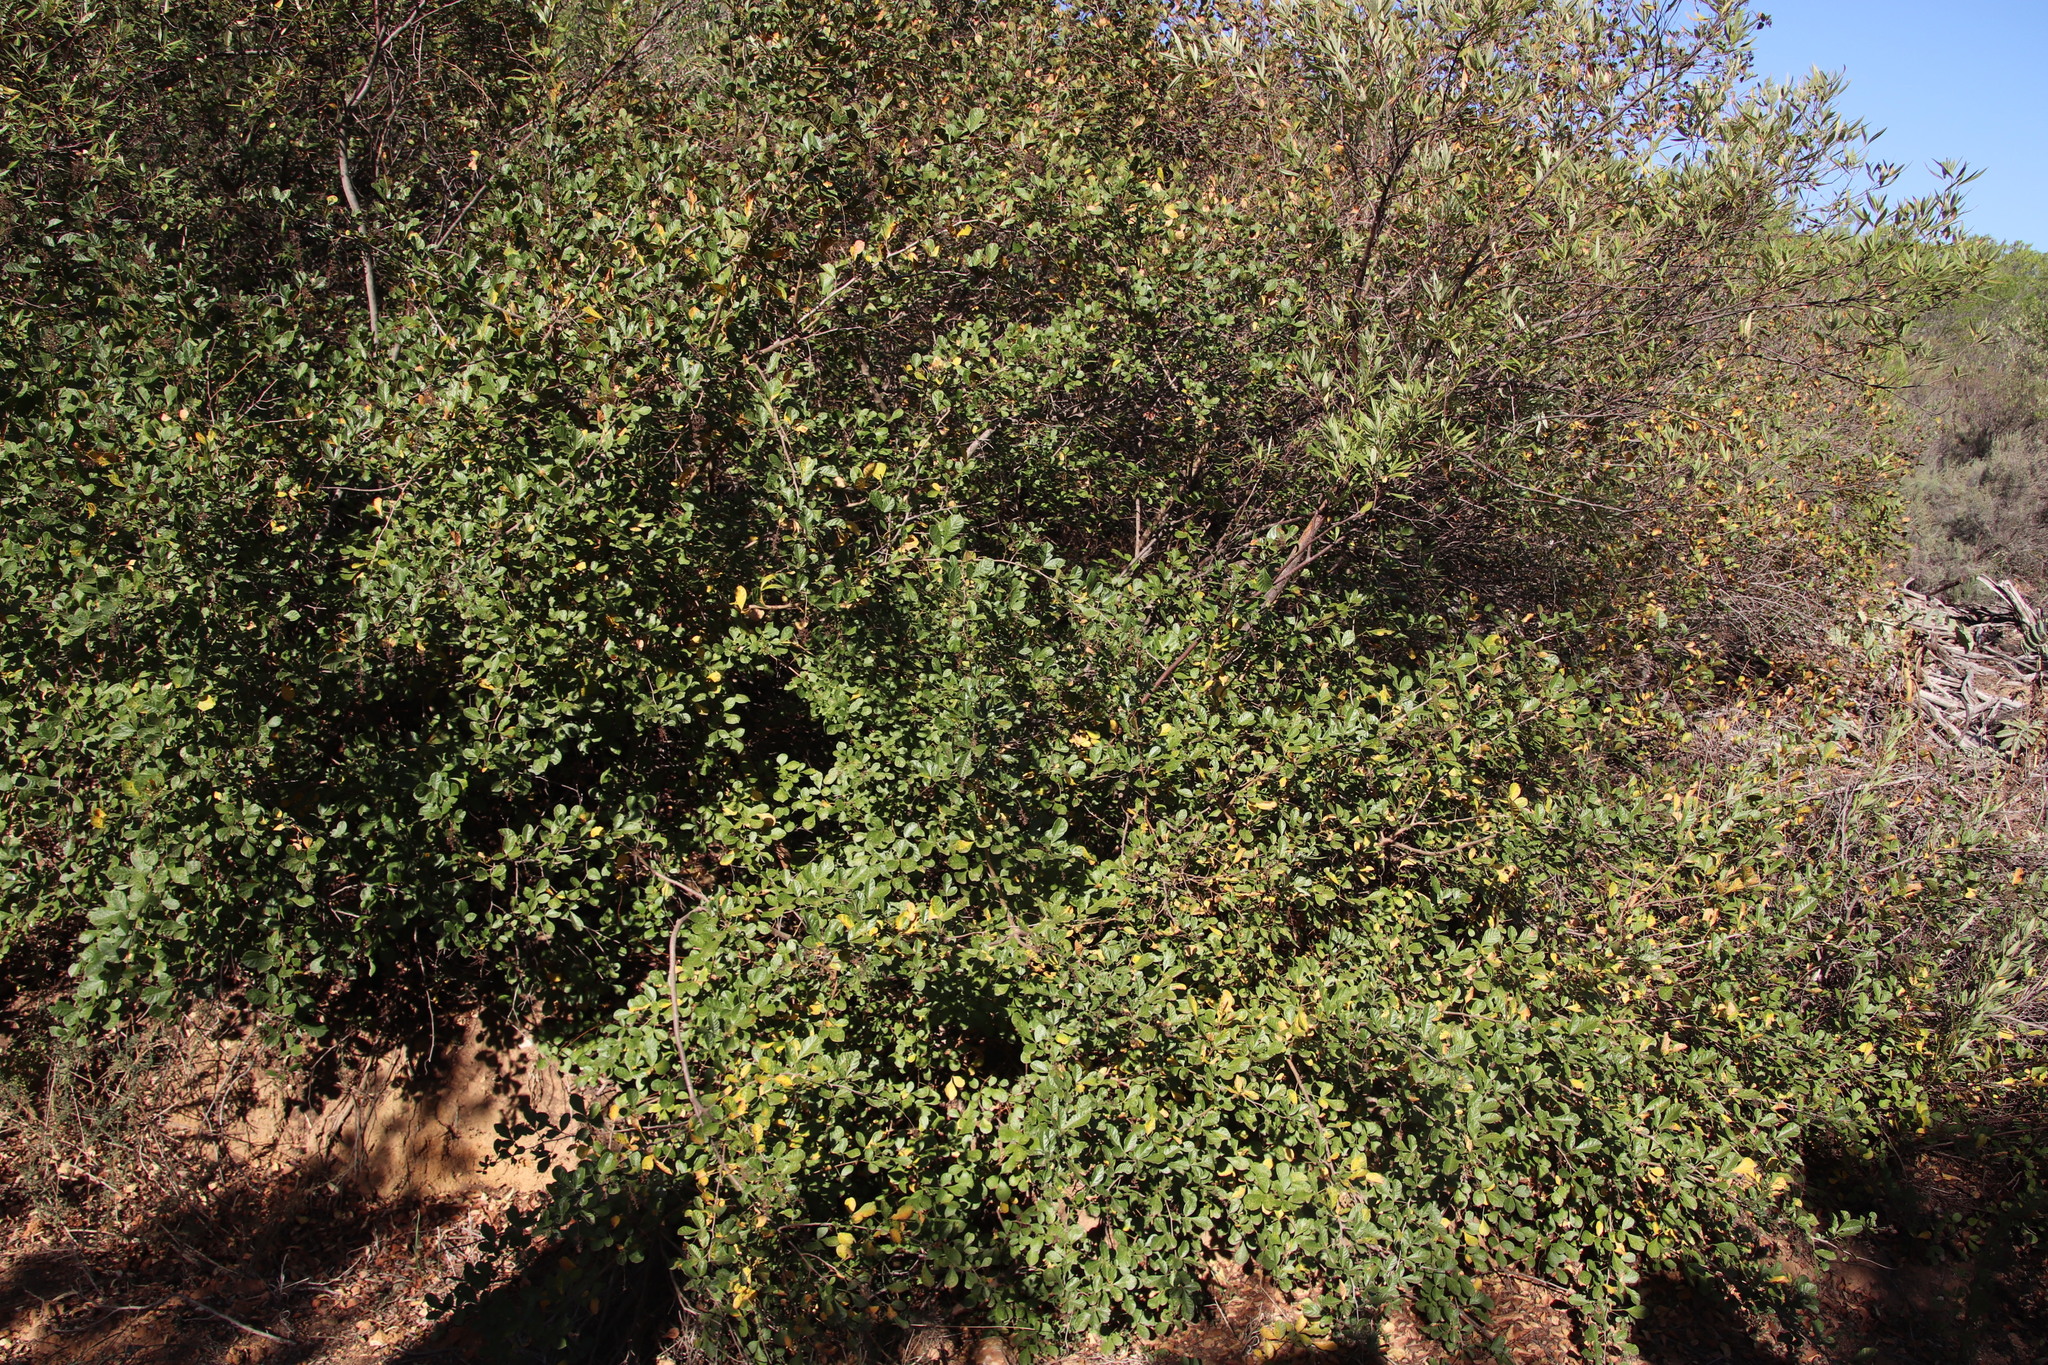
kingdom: Plantae
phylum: Tracheophyta
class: Magnoliopsida
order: Sapindales
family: Anacardiaceae
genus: Searsia
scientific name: Searsia rehmanniana
